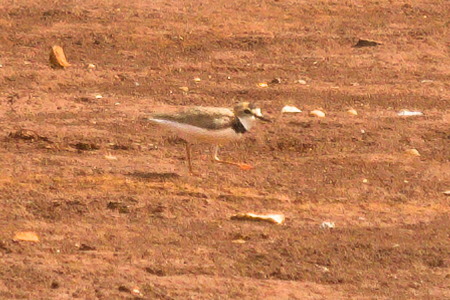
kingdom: Animalia
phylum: Chordata
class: Aves
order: Charadriiformes
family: Charadriidae
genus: Anarhynchus
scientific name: Anarhynchus
